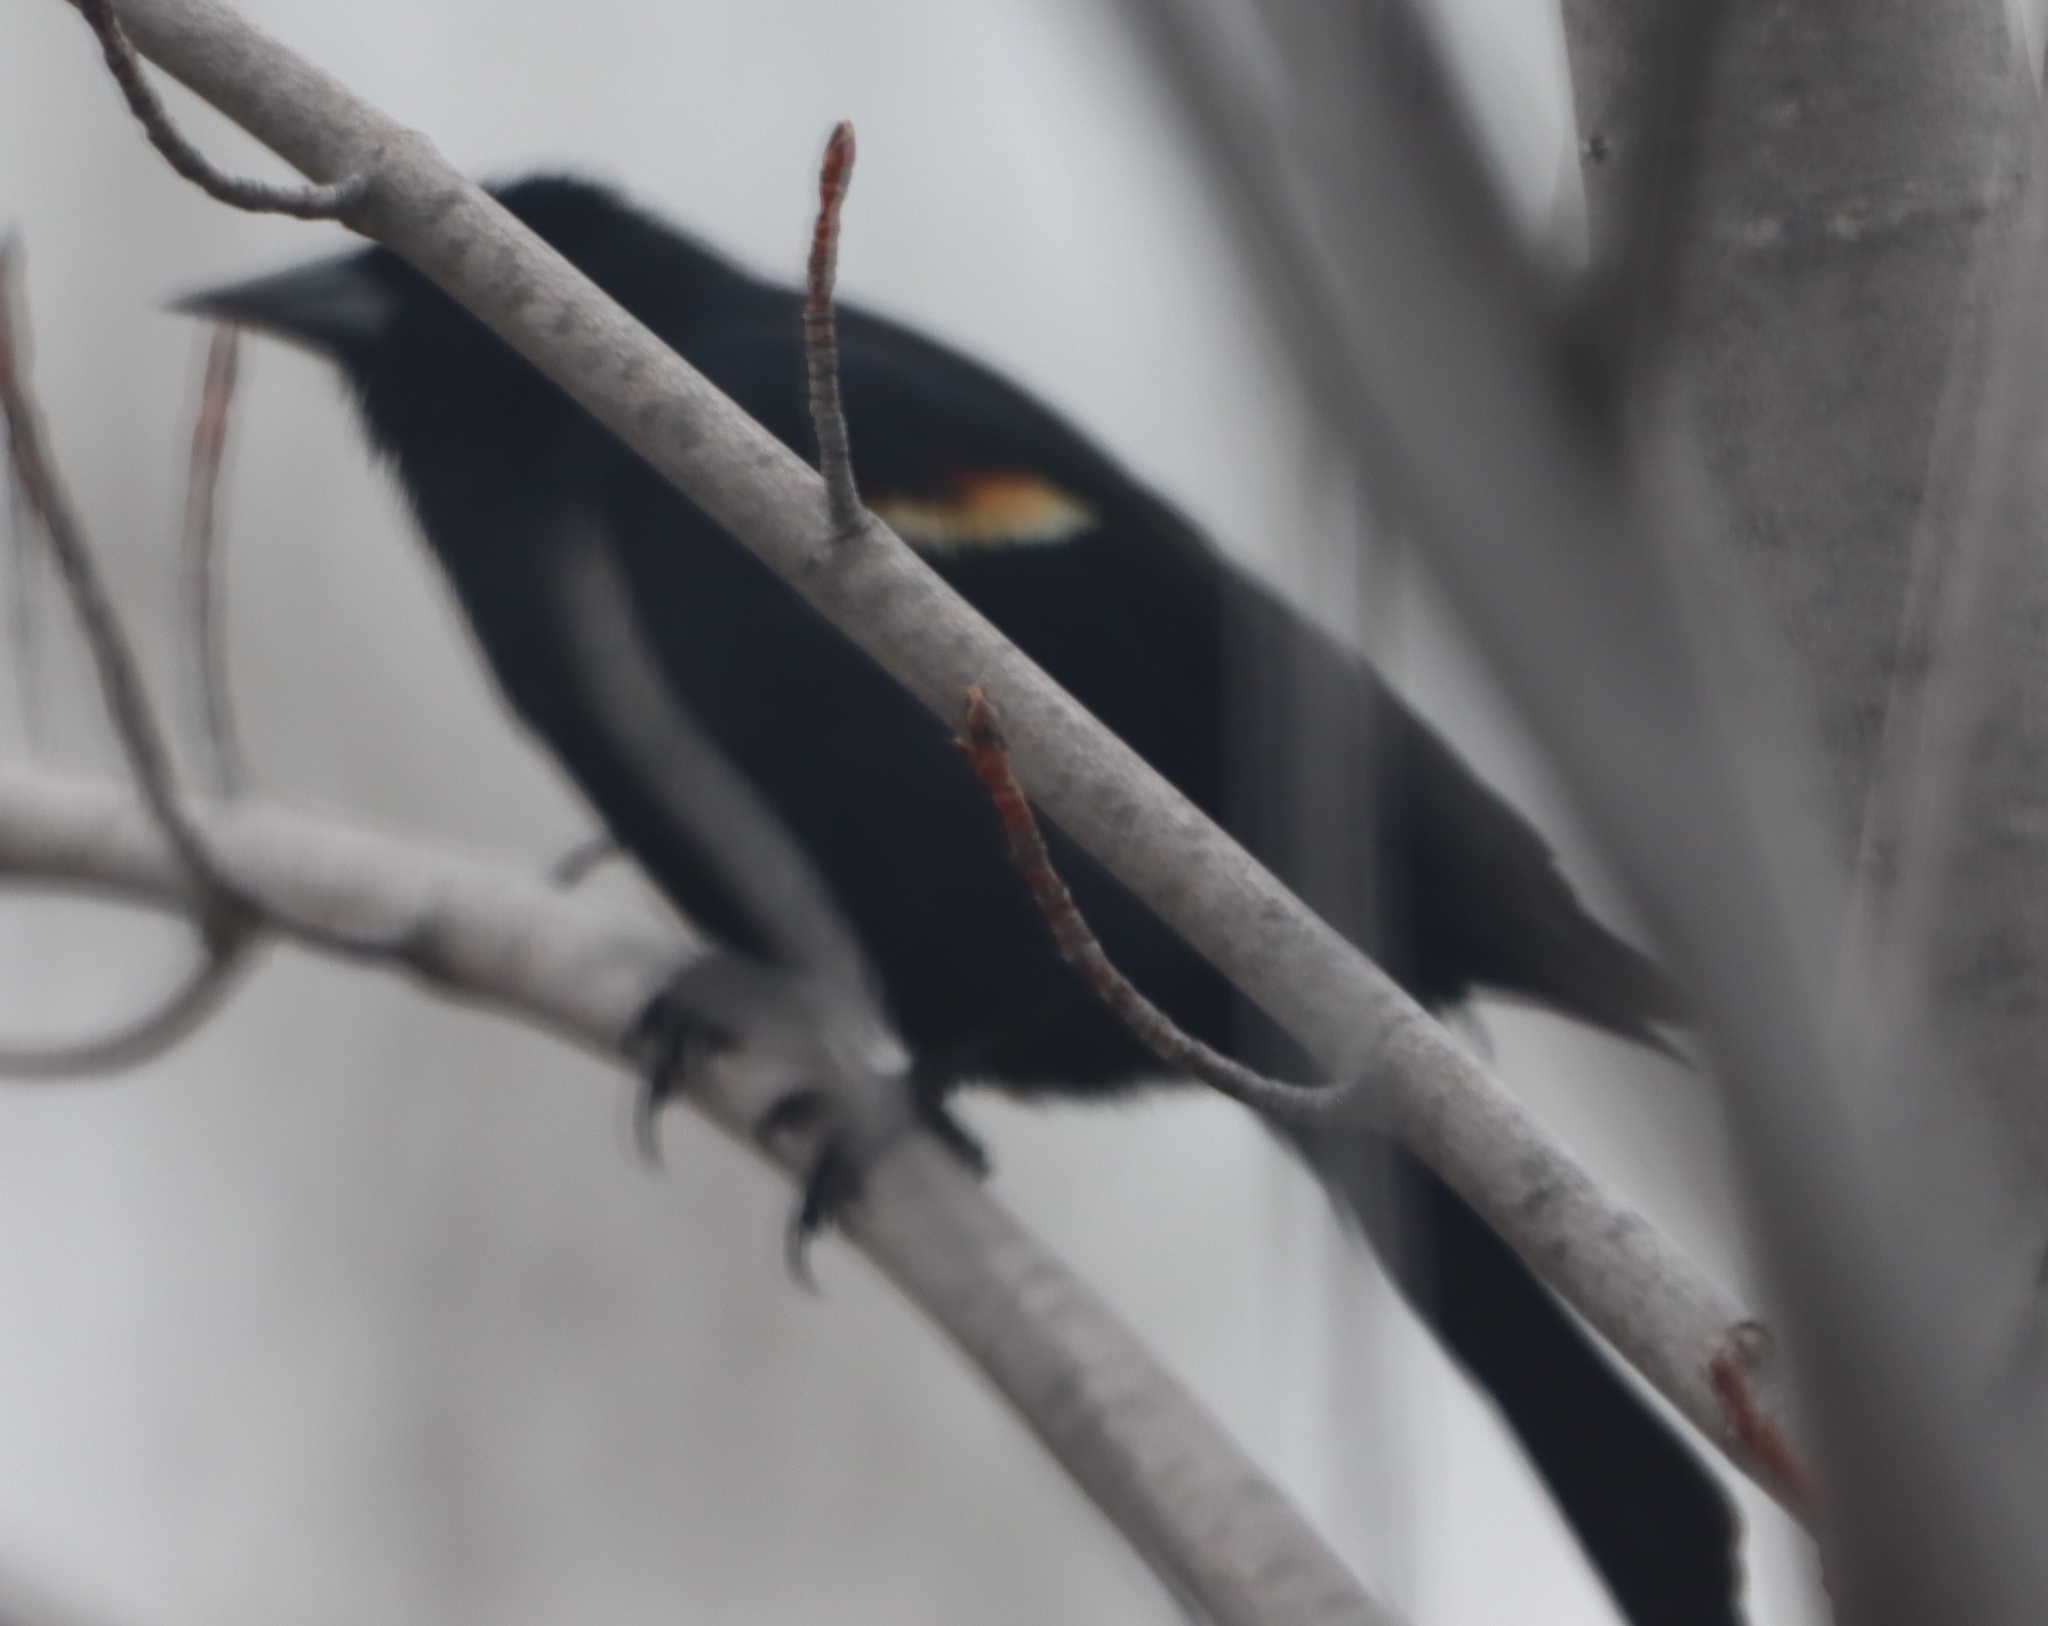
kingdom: Animalia
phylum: Chordata
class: Aves
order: Passeriformes
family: Icteridae
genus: Agelaius
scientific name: Agelaius phoeniceus
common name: Red-winged blackbird
